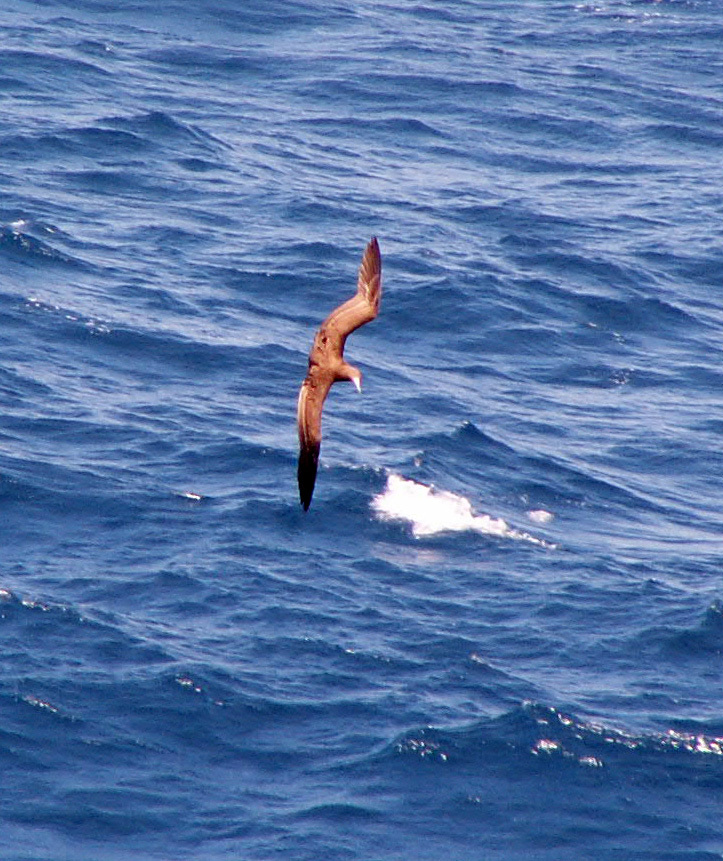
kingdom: Animalia
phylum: Chordata
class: Aves
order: Suliformes
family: Sulidae
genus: Sula
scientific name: Sula leucogaster
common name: Brown booby
